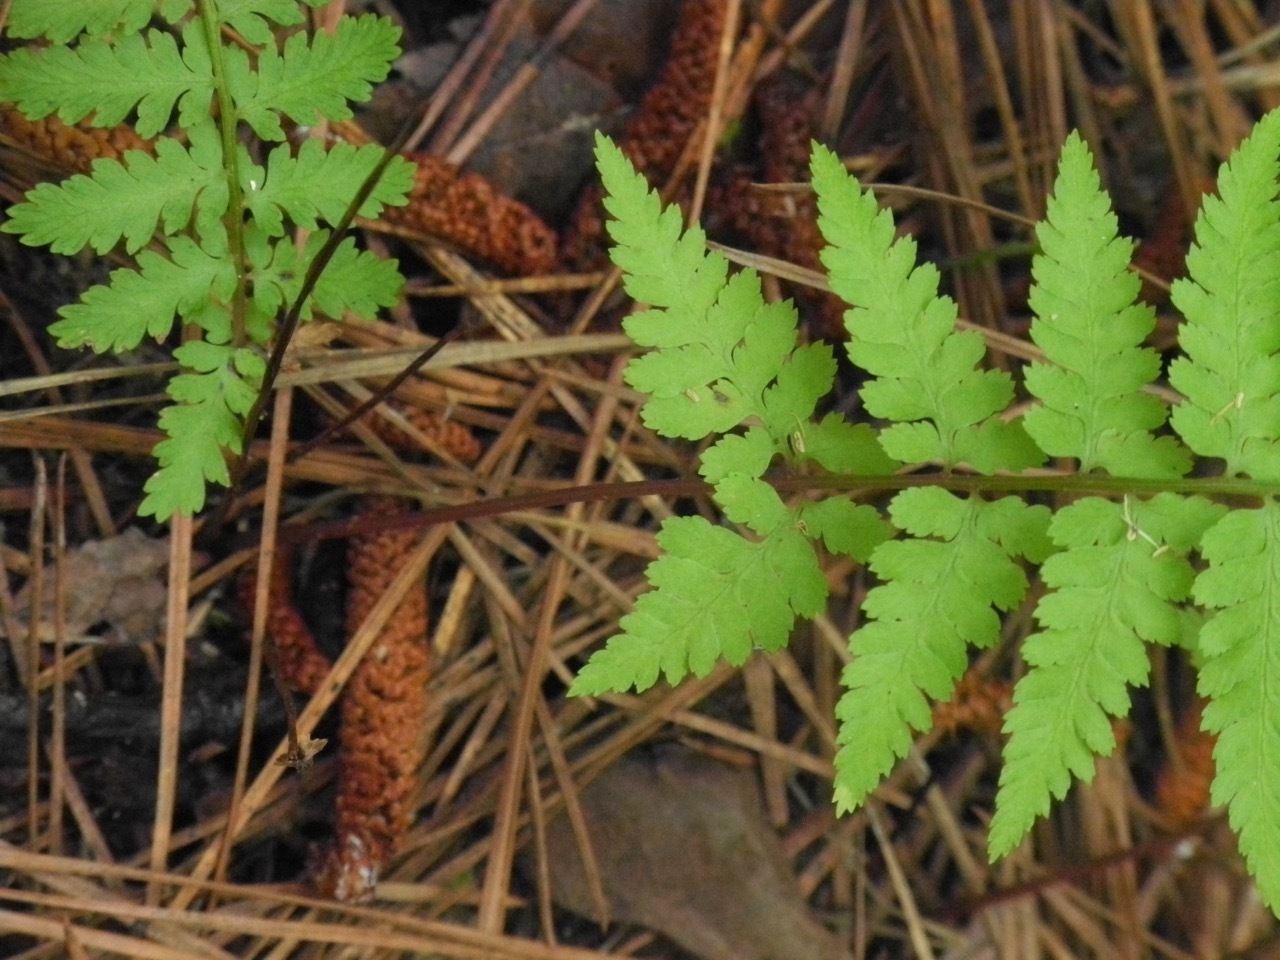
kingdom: Plantae
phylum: Tracheophyta
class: Polypodiopsida
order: Polypodiales
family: Athyriaceae
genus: Athyrium
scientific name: Athyrium asplenioides
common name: Southern lady fern
